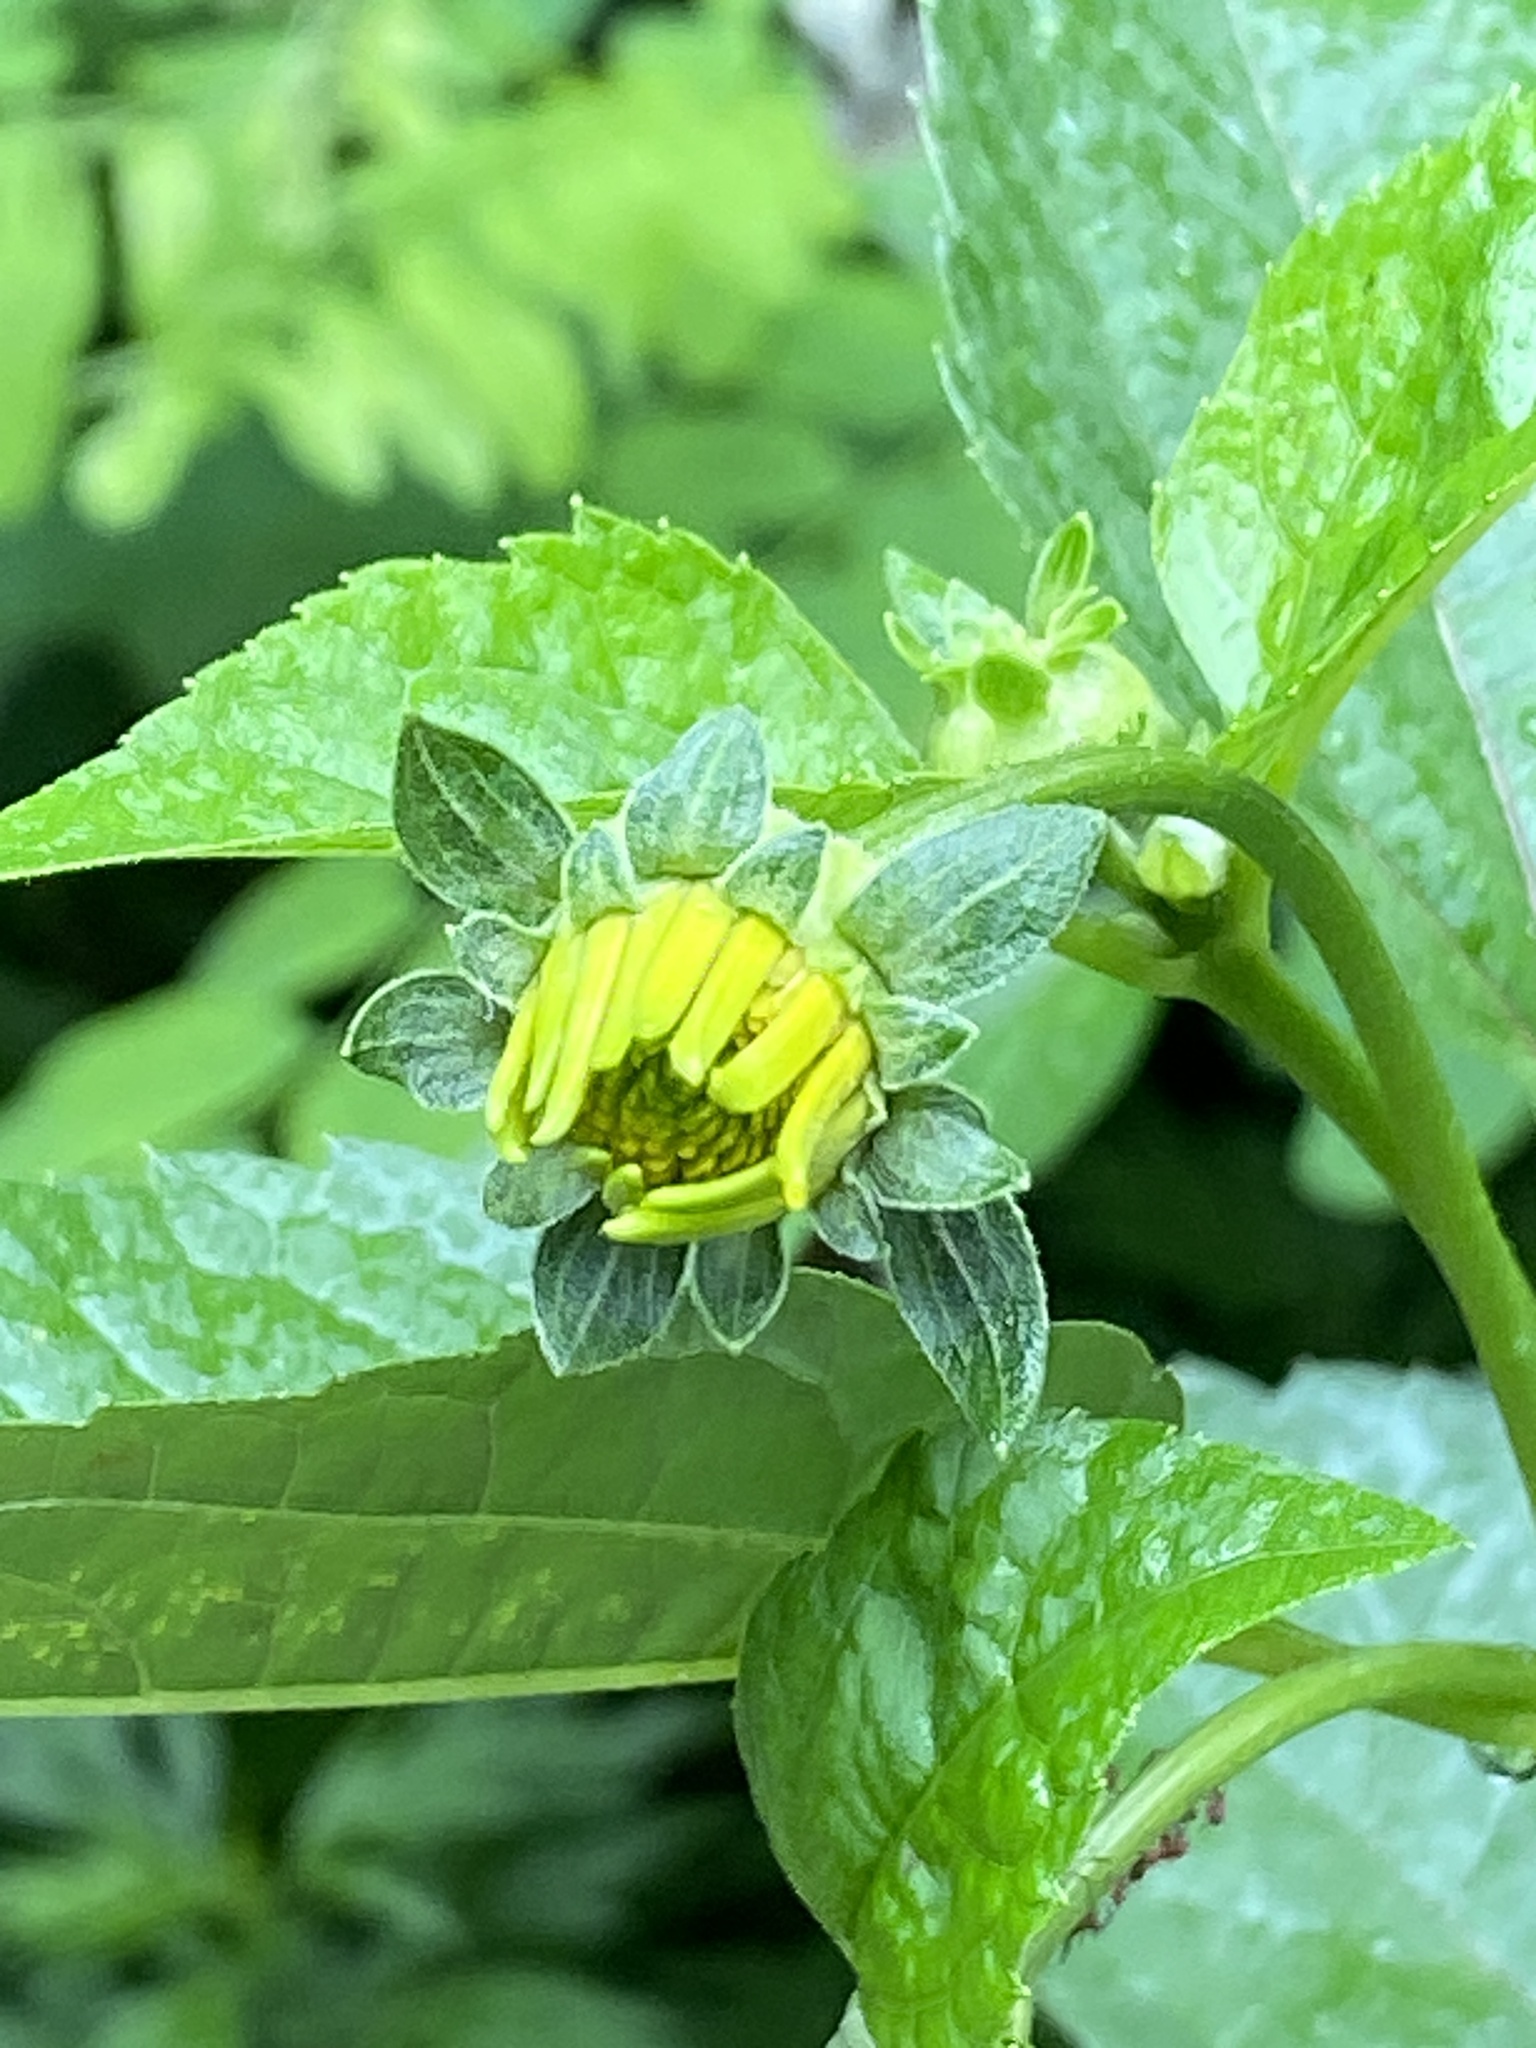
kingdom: Plantae
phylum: Tracheophyta
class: Magnoliopsida
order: Asterales
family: Asteraceae
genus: Heliopsis
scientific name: Heliopsis helianthoides
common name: False sunflower
